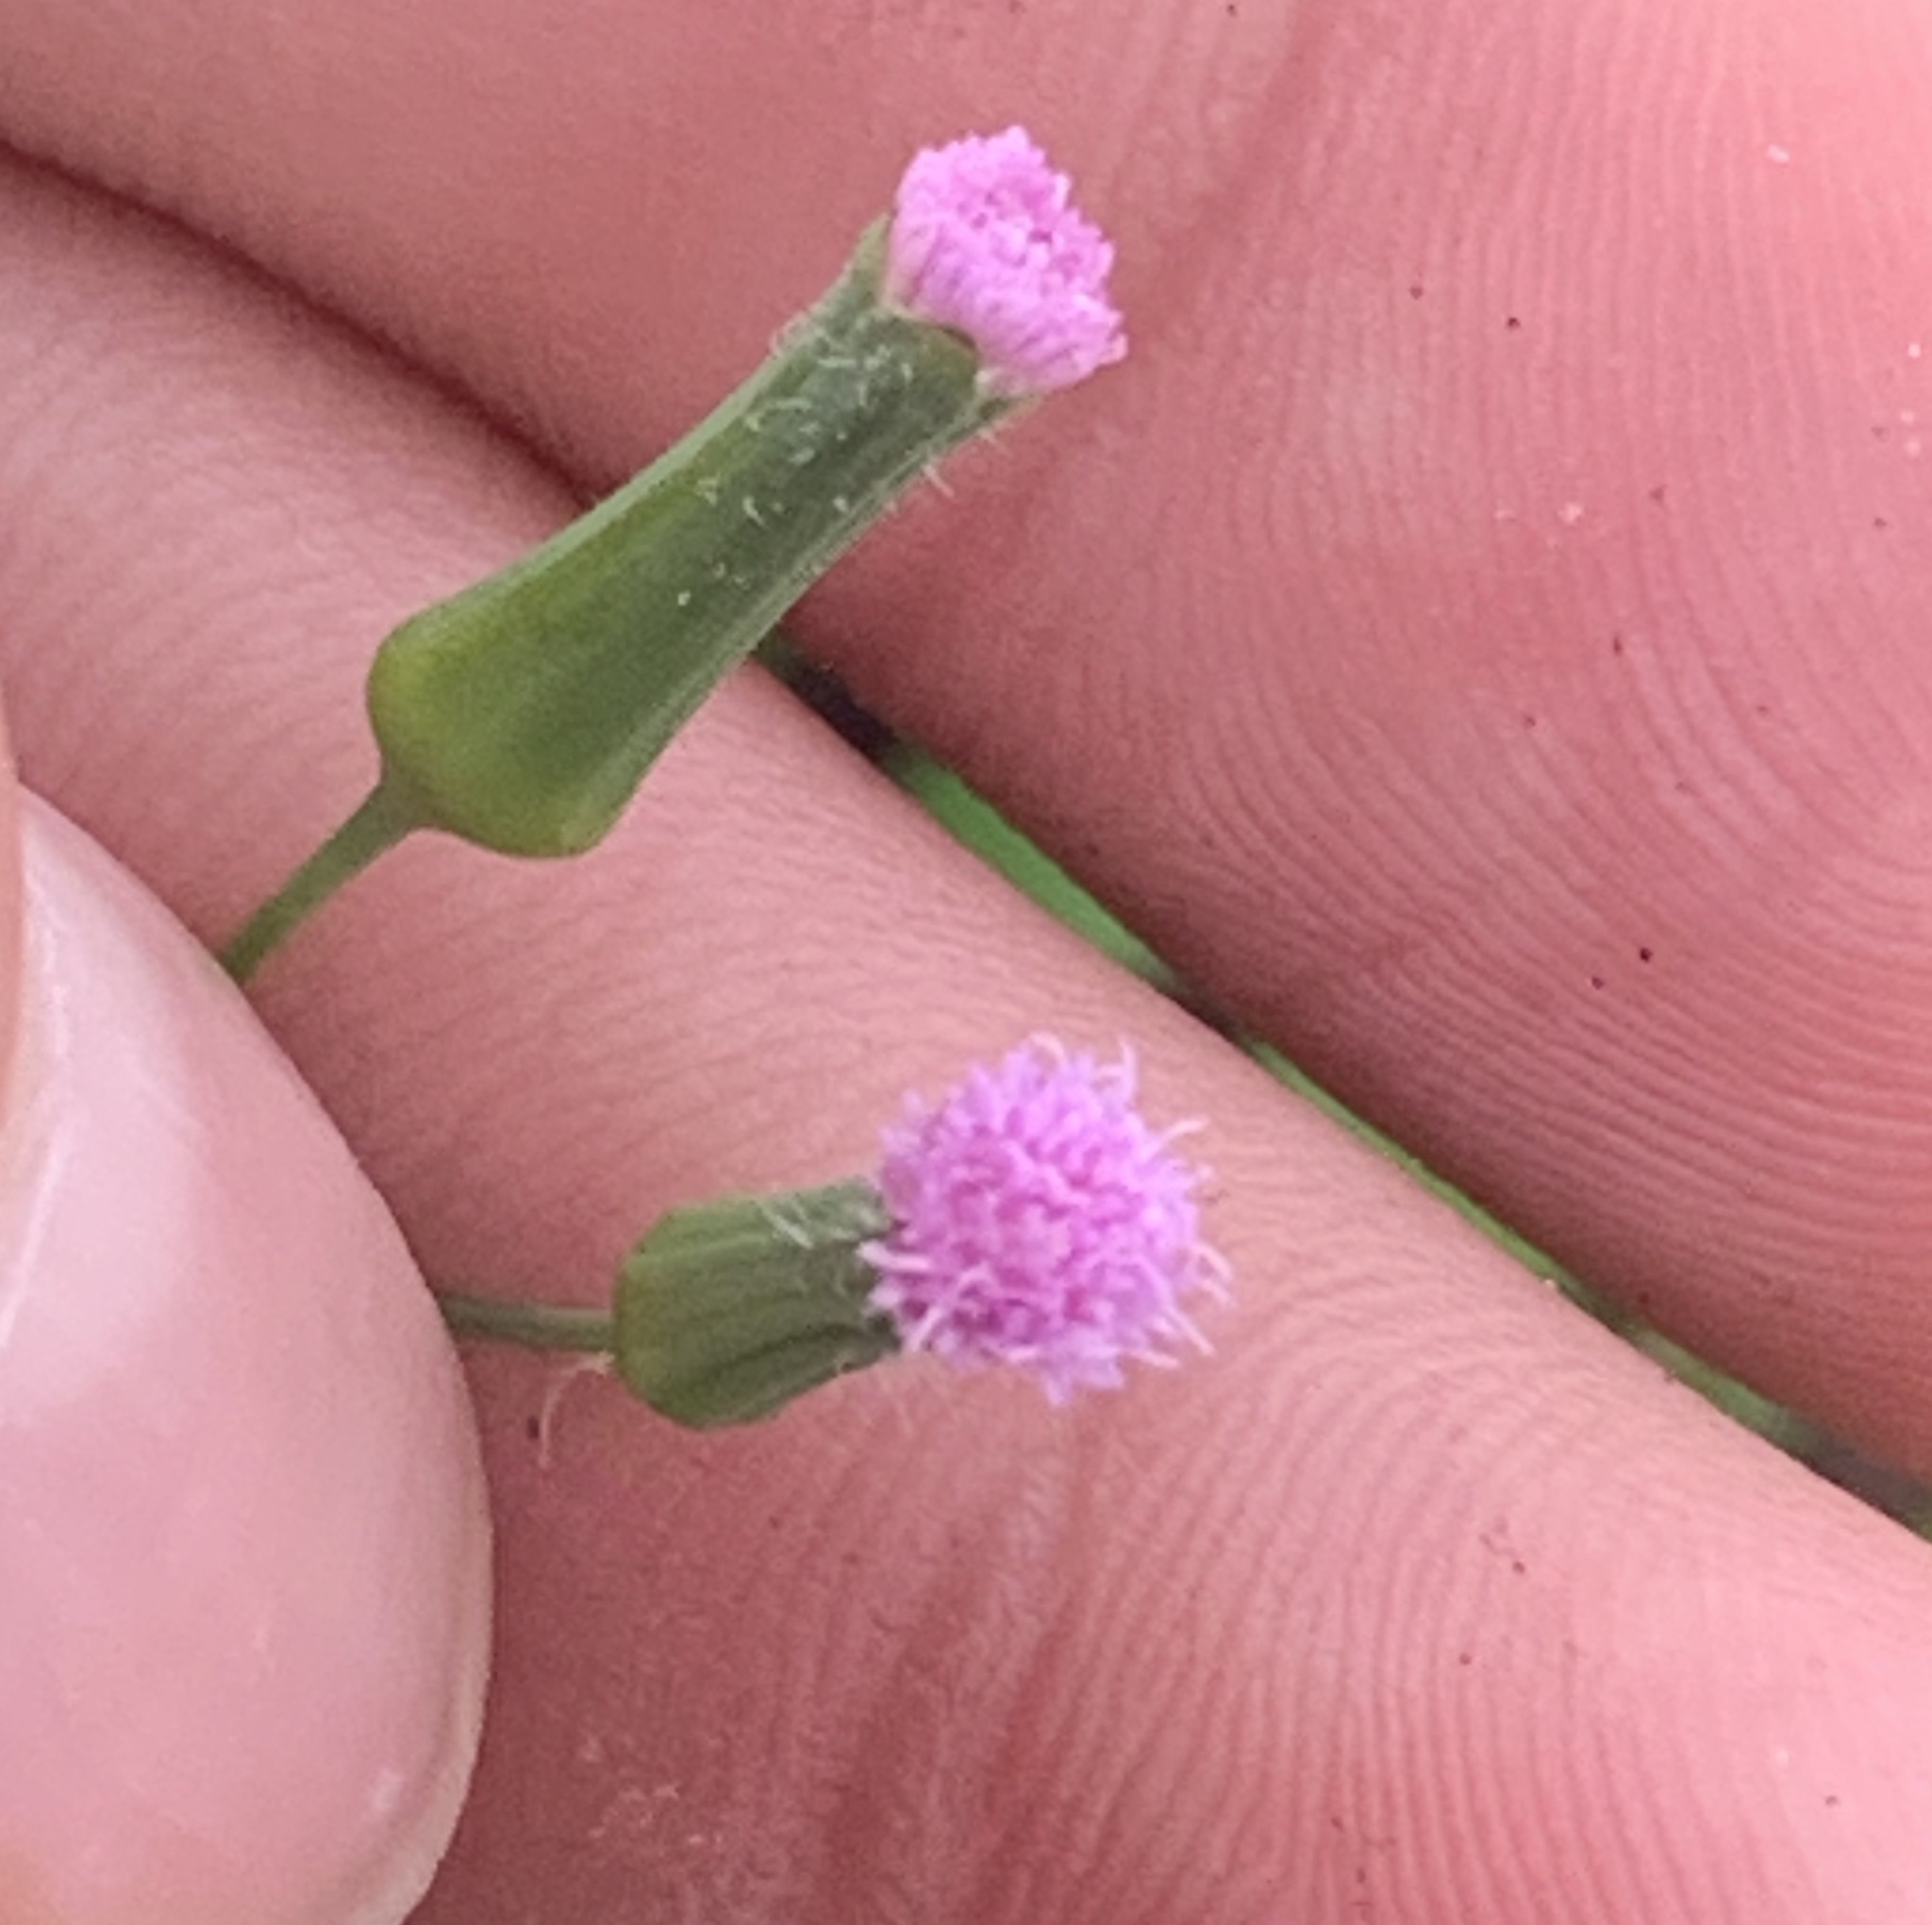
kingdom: Plantae
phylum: Tracheophyta
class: Magnoliopsida
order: Asterales
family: Asteraceae
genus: Emilia
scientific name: Emilia sonchifolia
